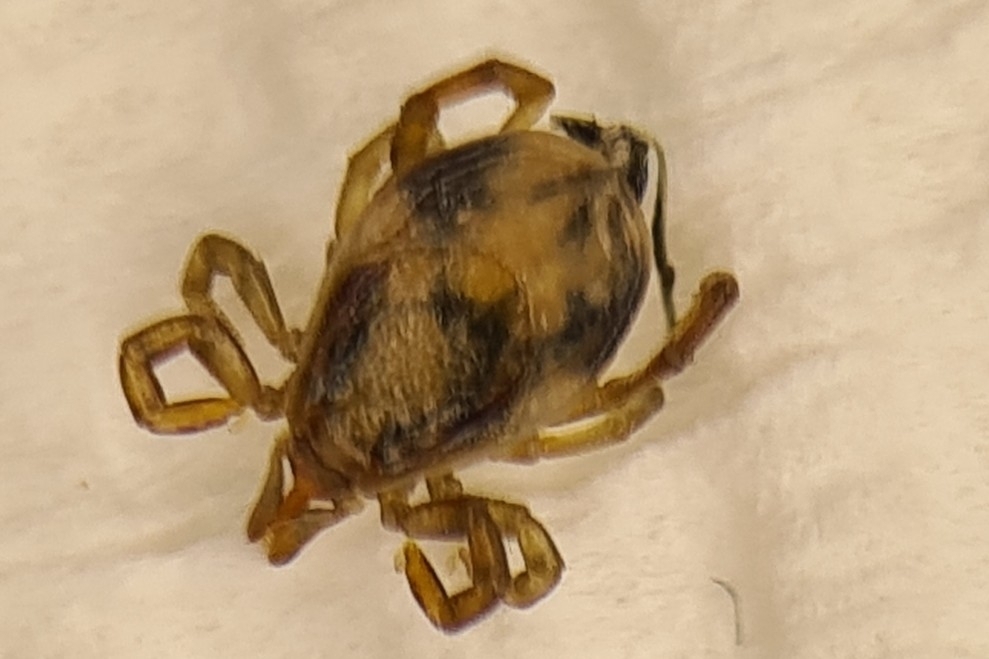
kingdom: Animalia
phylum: Arthropoda
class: Arachnida
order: Ixodida
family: Ixodidae
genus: Ixodes
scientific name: Ixodes holocyclus
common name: Australian paralysis tick
